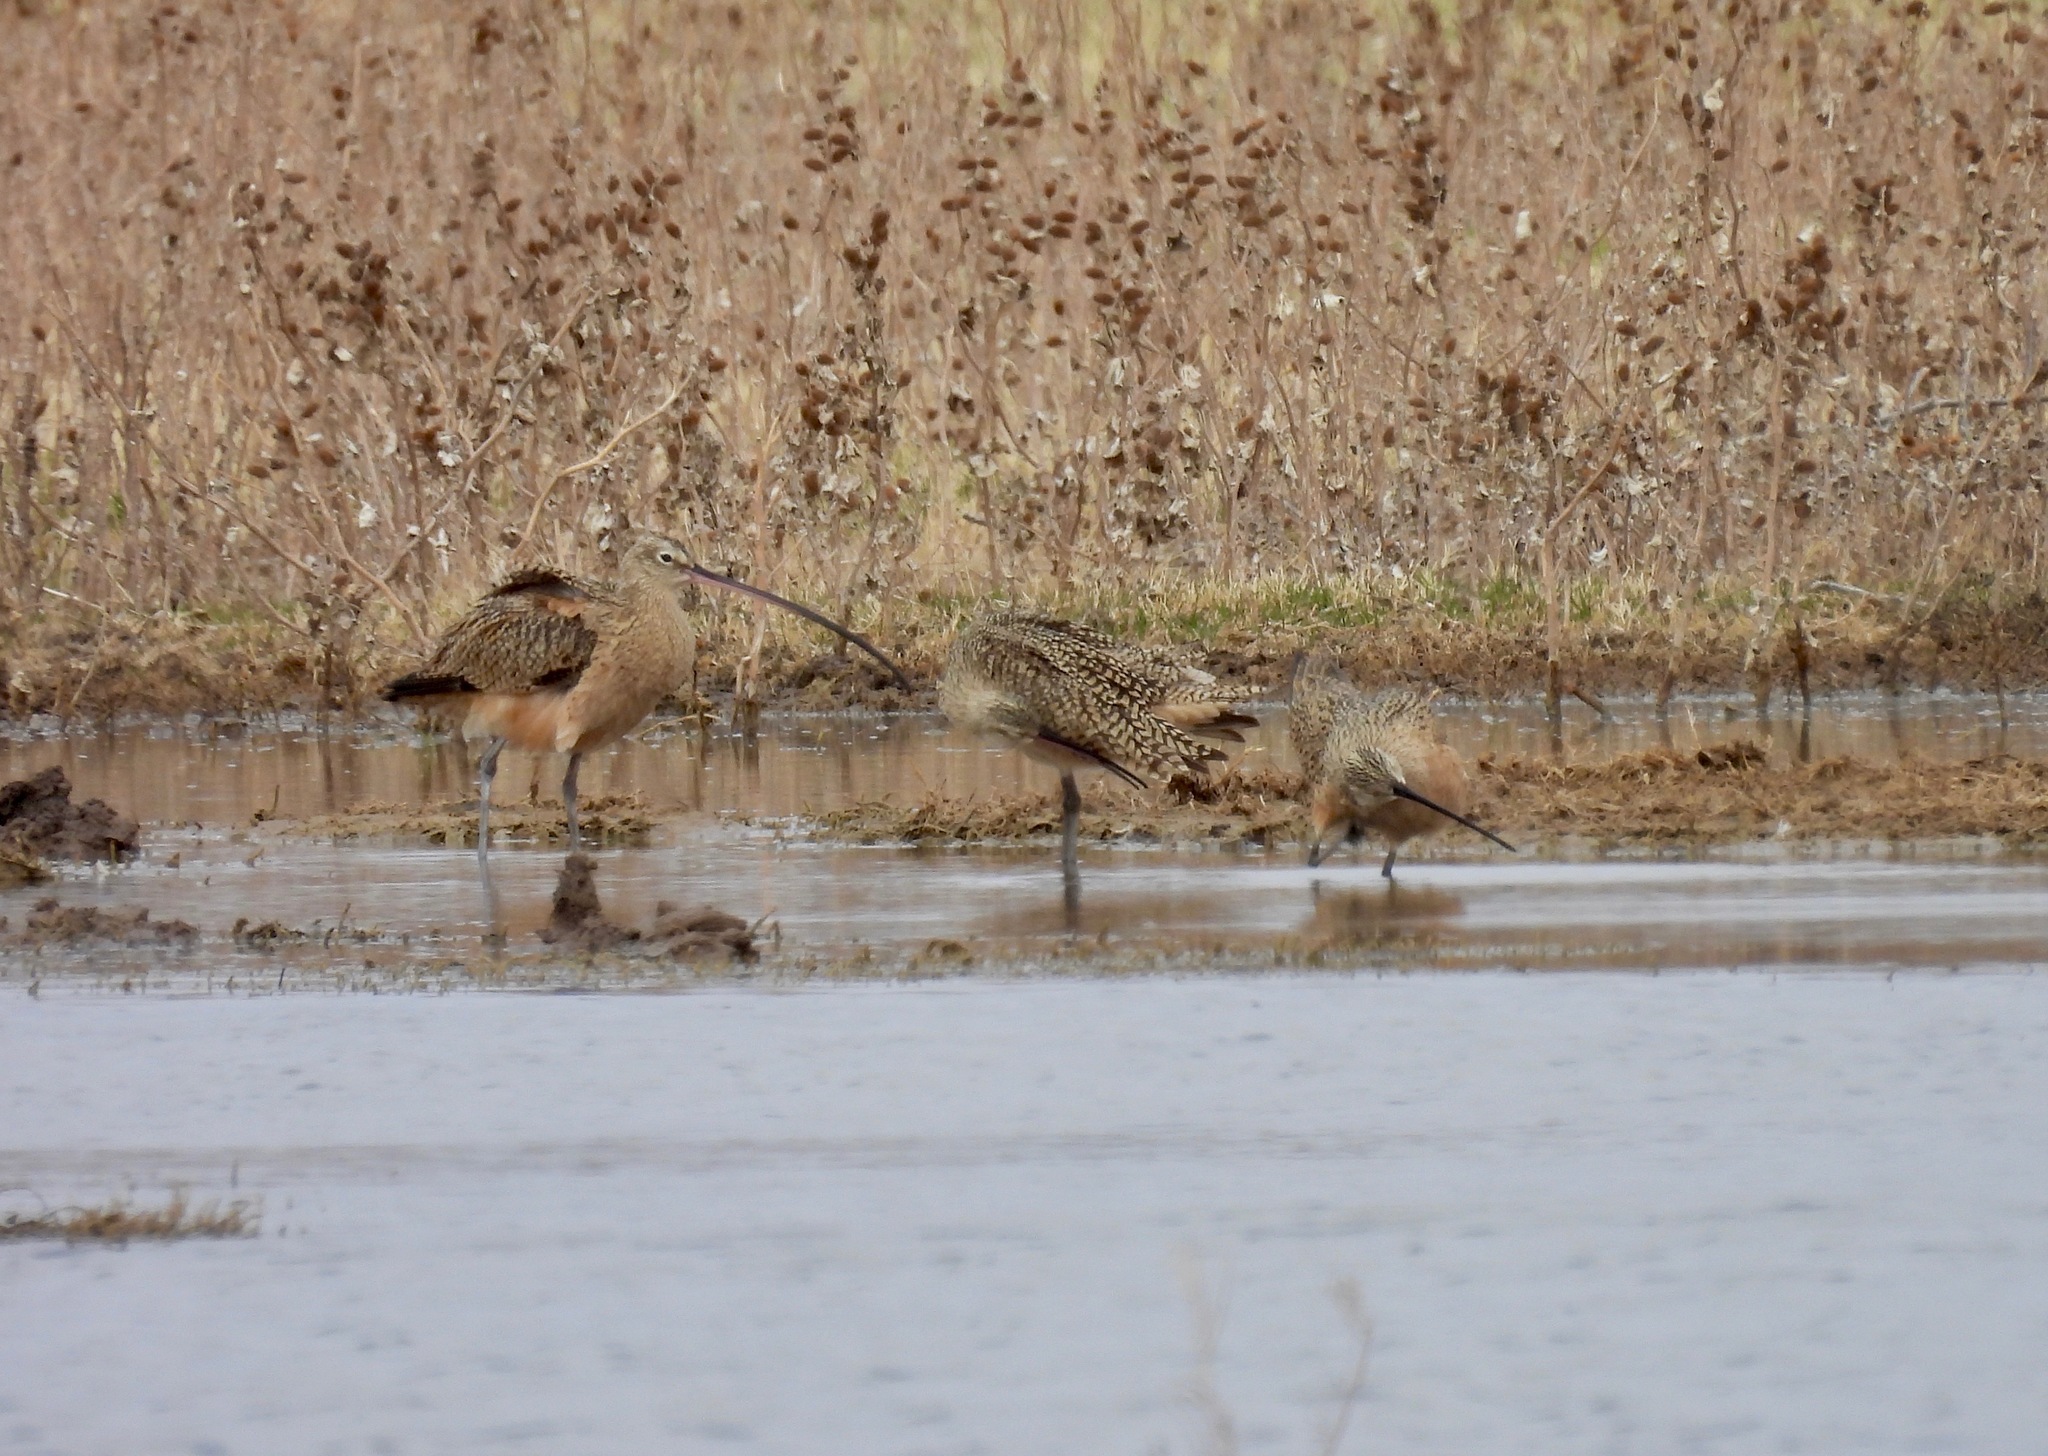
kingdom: Animalia
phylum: Chordata
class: Aves
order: Charadriiformes
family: Scolopacidae
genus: Numenius
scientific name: Numenius americanus
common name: Long-billed curlew
